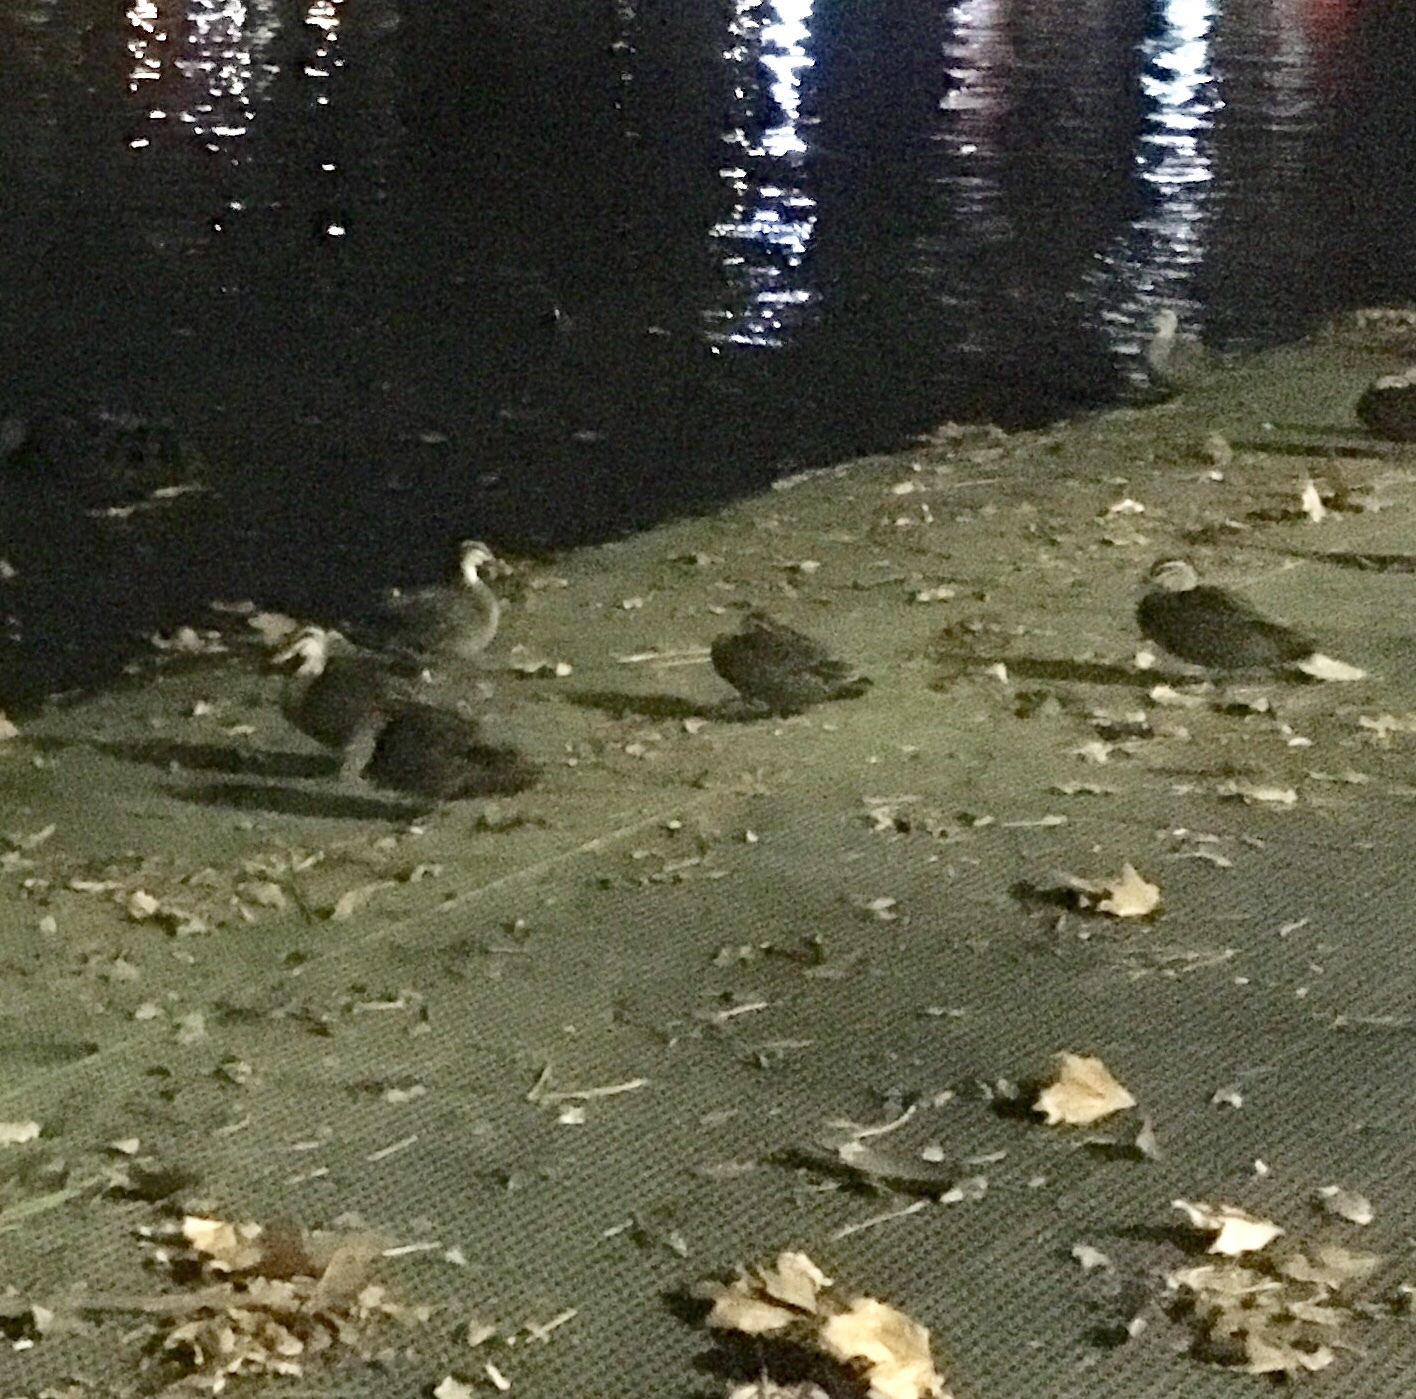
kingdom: Animalia
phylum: Chordata
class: Aves
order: Anseriformes
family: Anatidae
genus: Anas
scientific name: Anas superciliosa
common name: Pacific black duck
